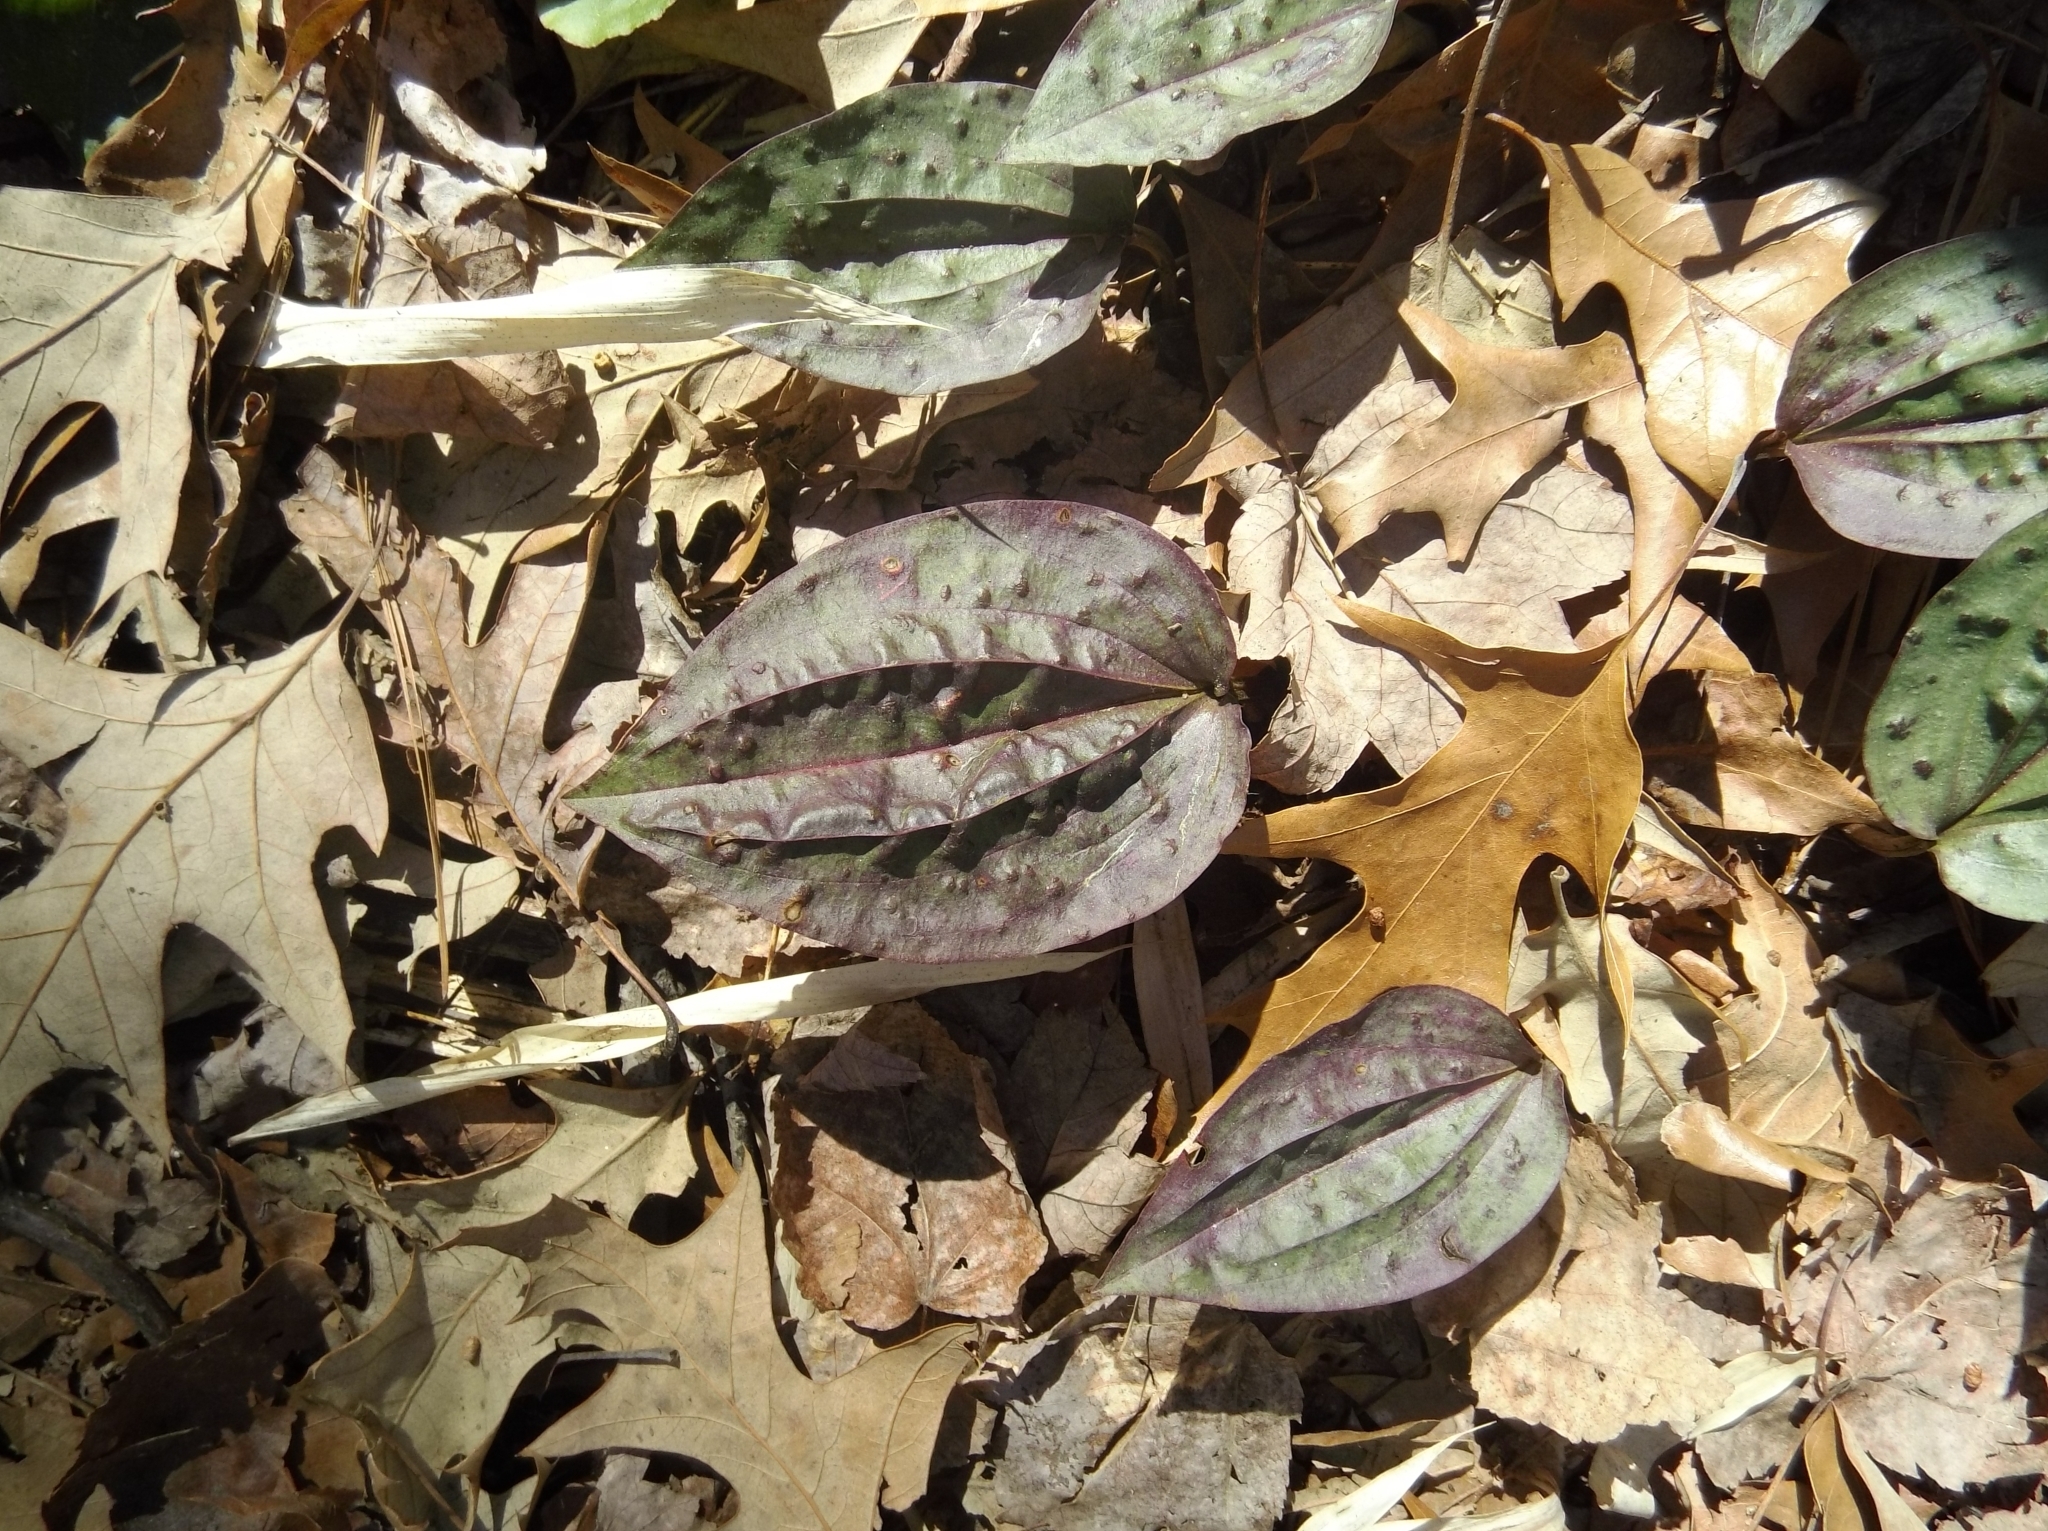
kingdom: Plantae
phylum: Tracheophyta
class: Liliopsida
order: Asparagales
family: Orchidaceae
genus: Tipularia
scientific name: Tipularia discolor
